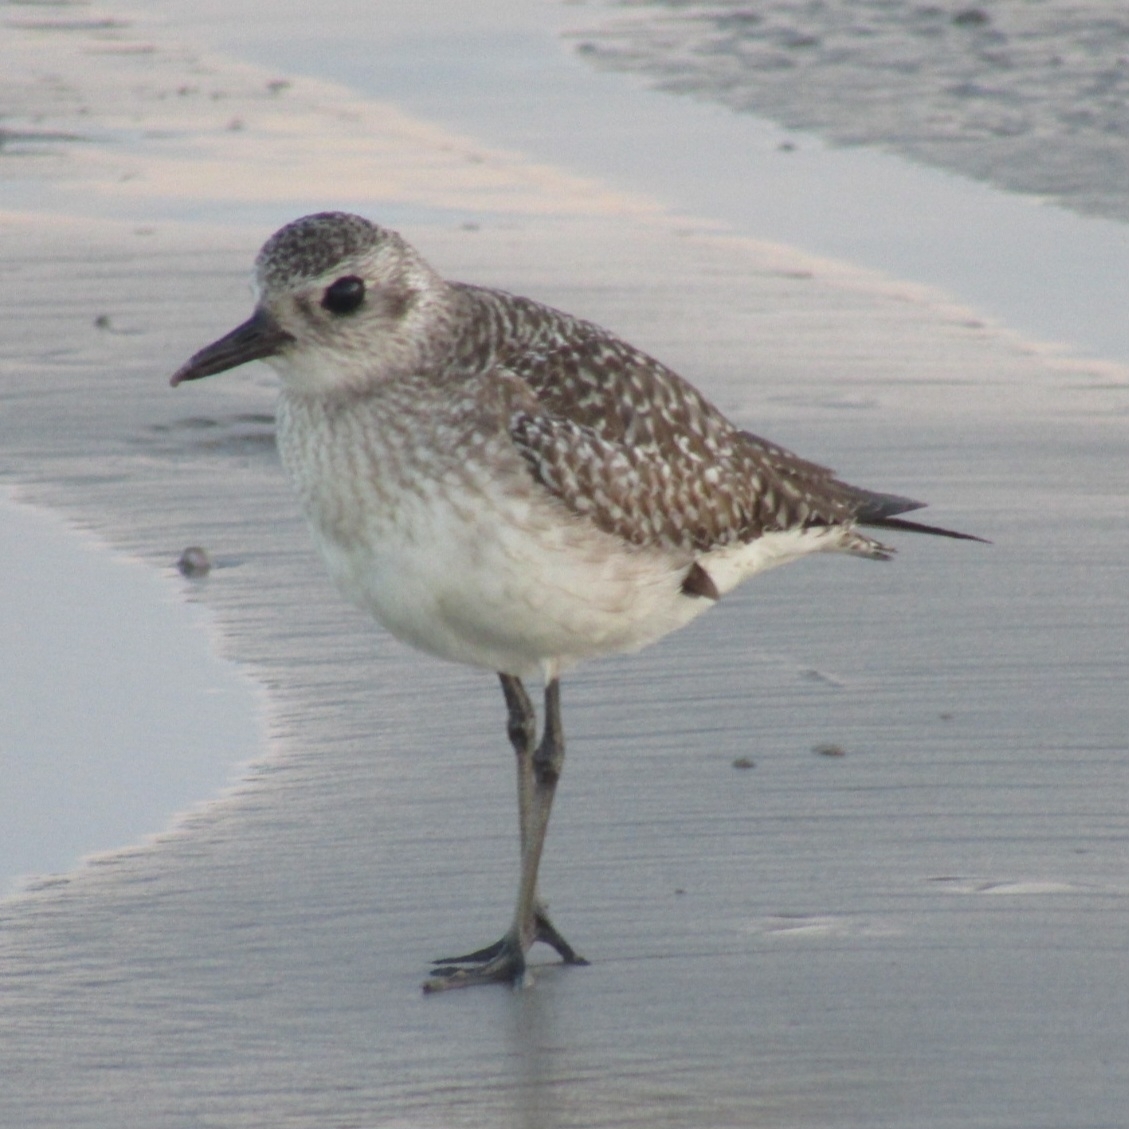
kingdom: Animalia
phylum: Chordata
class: Aves
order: Charadriiformes
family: Charadriidae
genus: Pluvialis
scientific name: Pluvialis squatarola
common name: Grey plover
